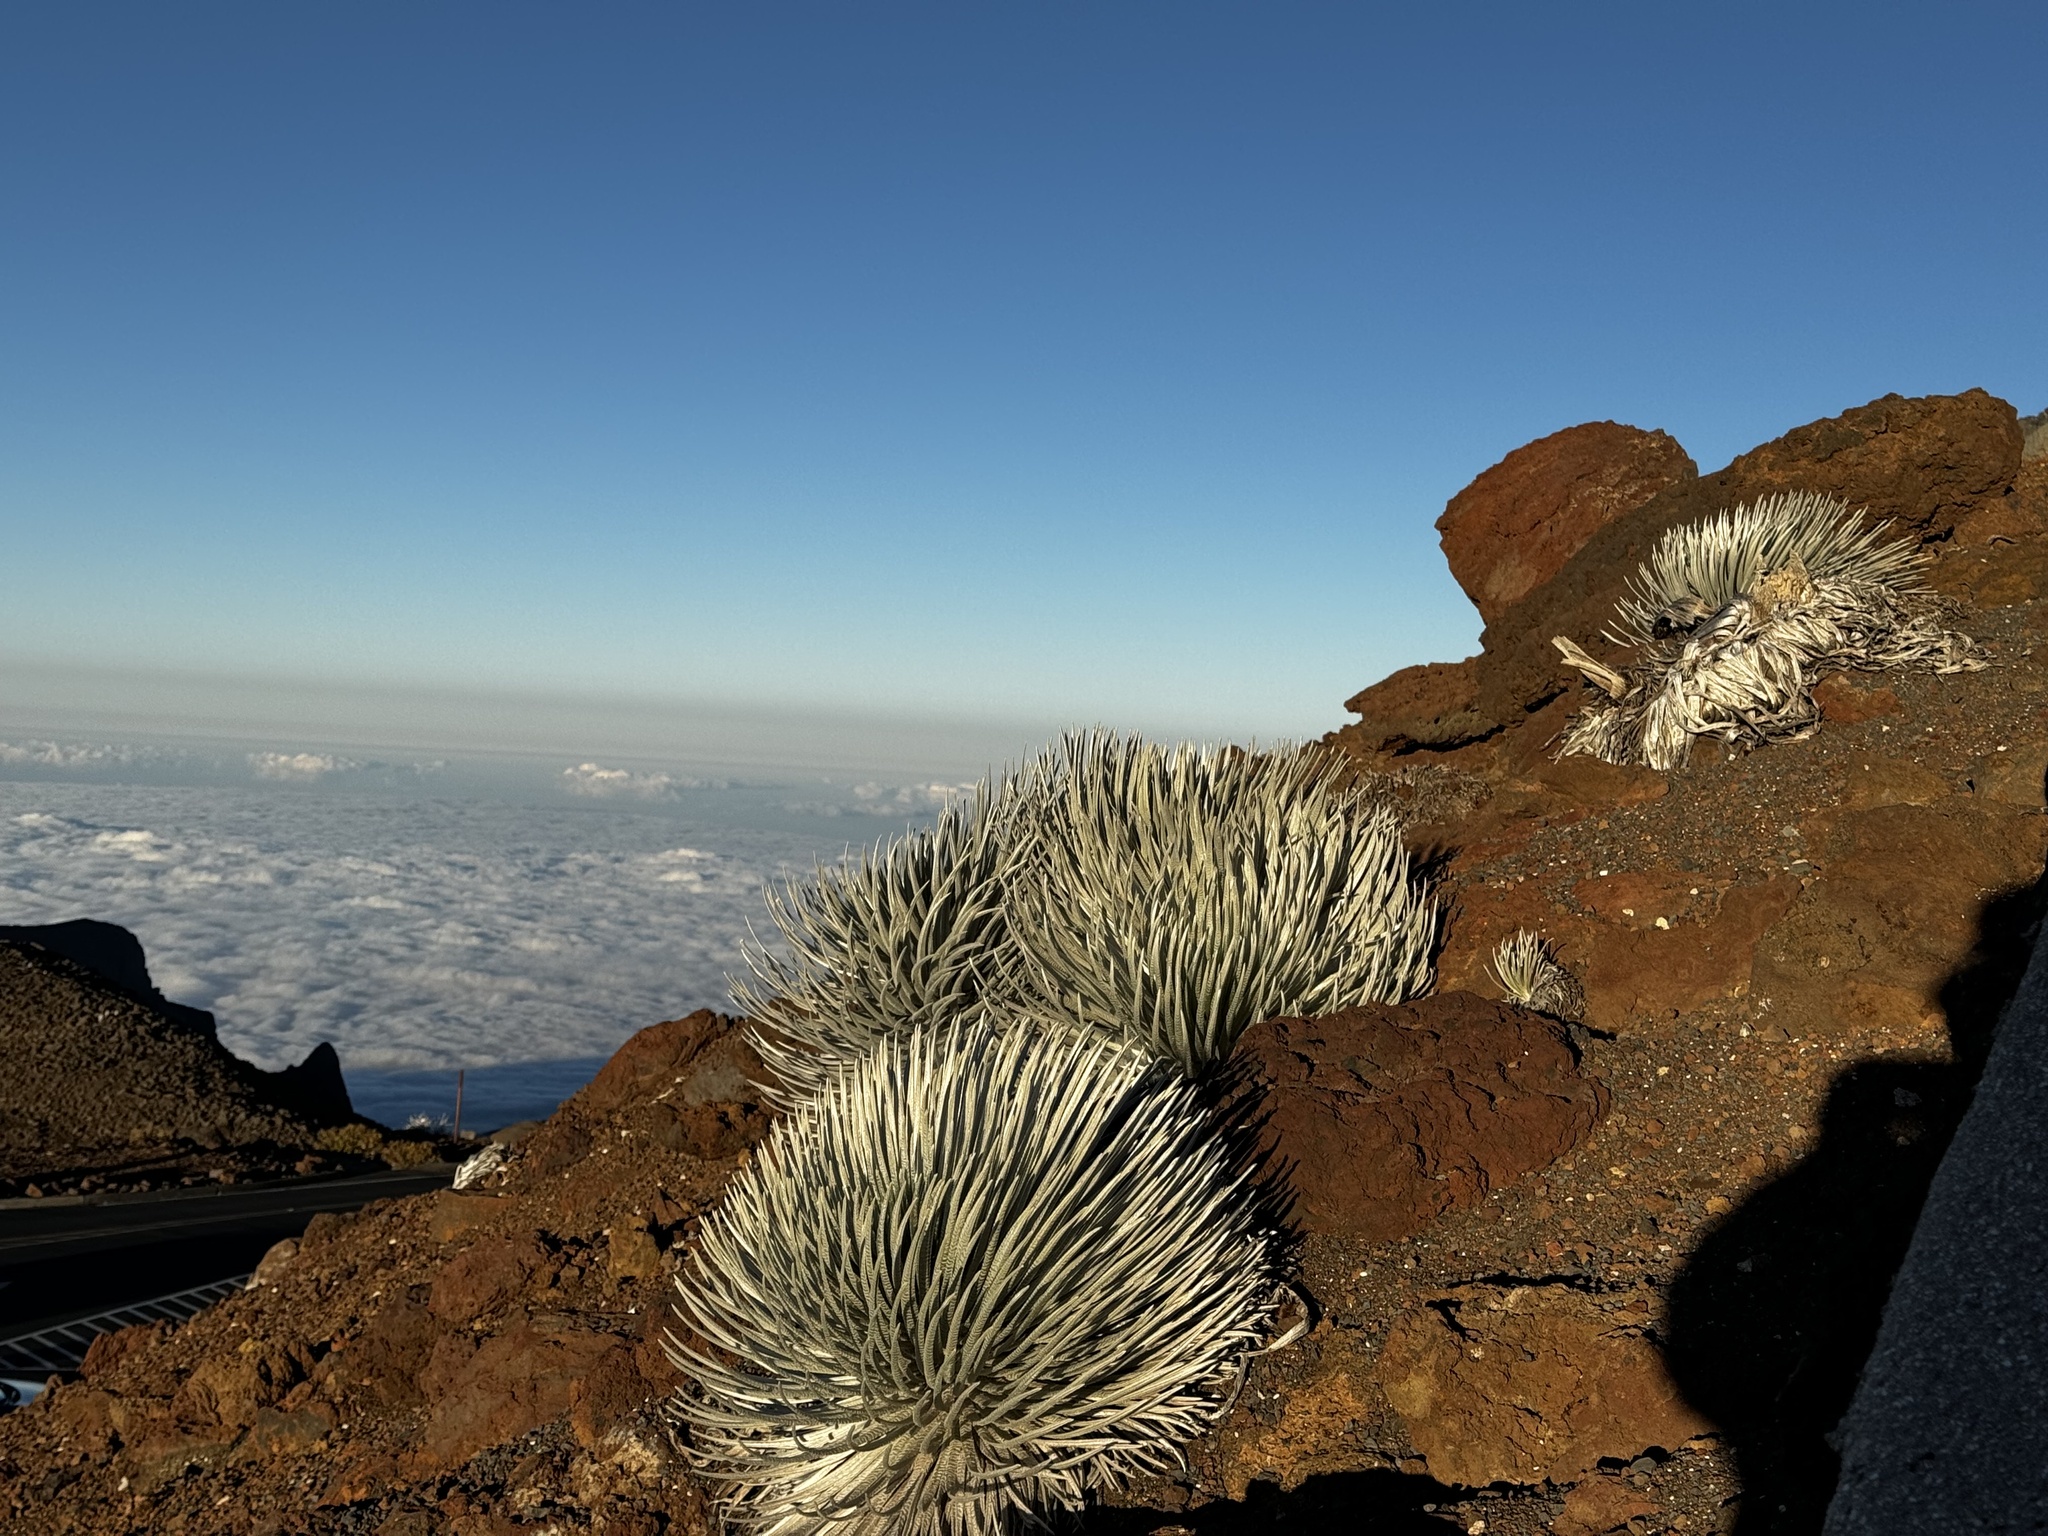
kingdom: Plantae
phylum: Tracheophyta
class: Magnoliopsida
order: Asterales
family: Asteraceae
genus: Argyroxiphium
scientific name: Argyroxiphium sandwicense
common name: Silversword
